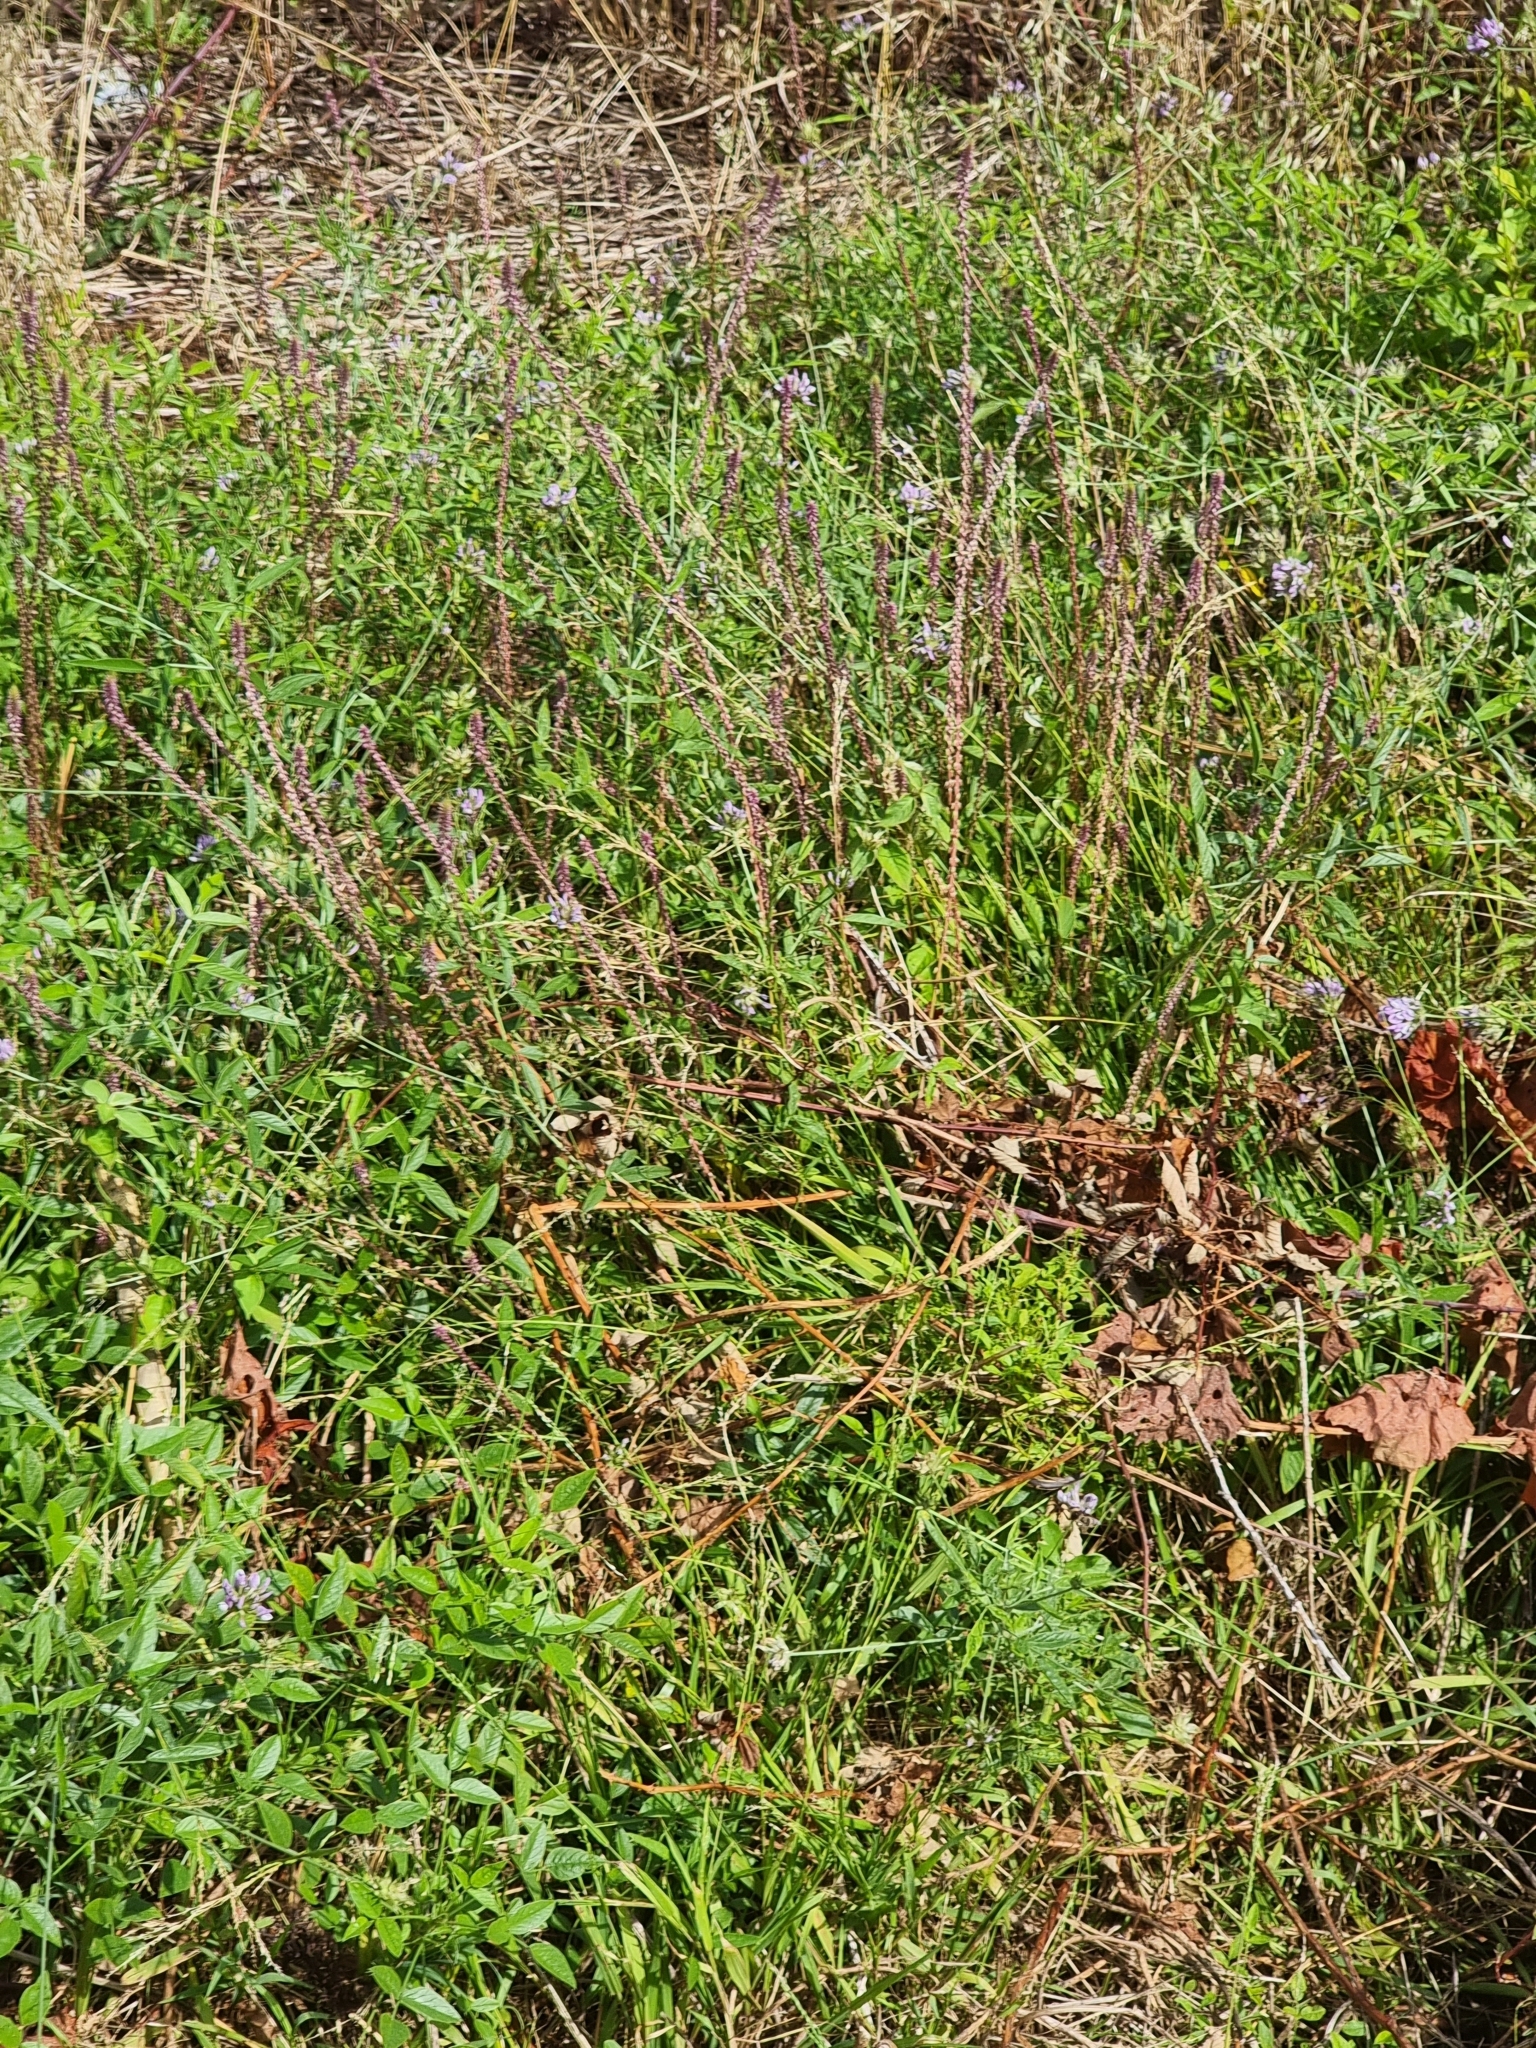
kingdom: Plantae
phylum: Tracheophyta
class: Magnoliopsida
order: Caryophyllales
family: Amaranthaceae
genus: Achyranthes
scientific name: Achyranthes aspera
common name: Devil's horsewhip
